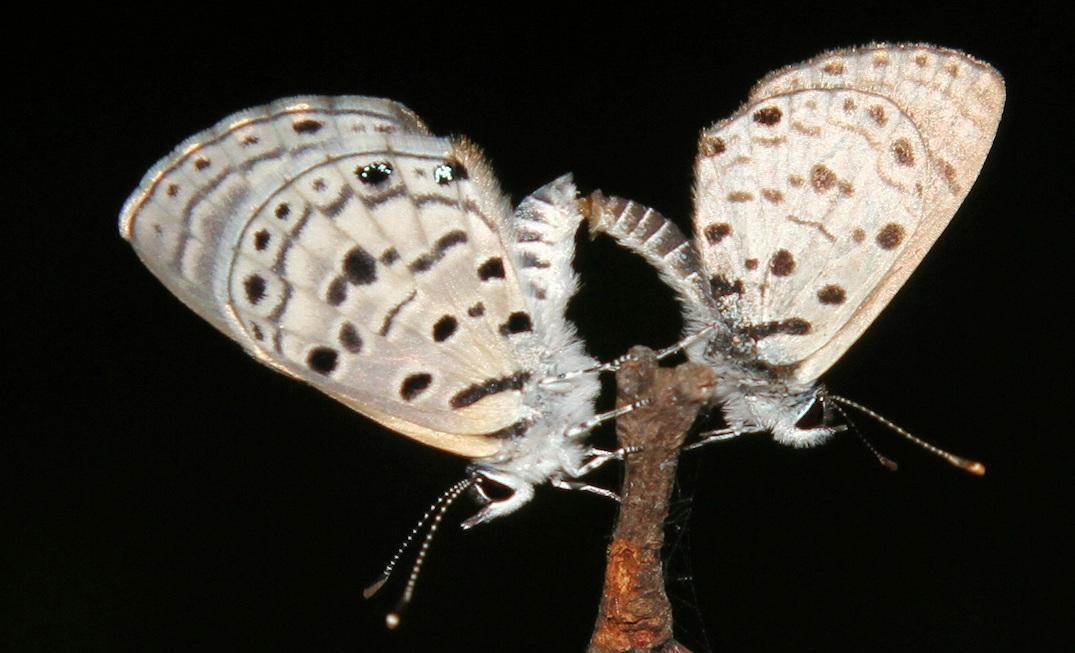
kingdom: Animalia
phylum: Arthropoda
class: Insecta
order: Lepidoptera
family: Lycaenidae
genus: Azanus
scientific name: Azanus moriqua
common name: Thorn-tree babul blue
